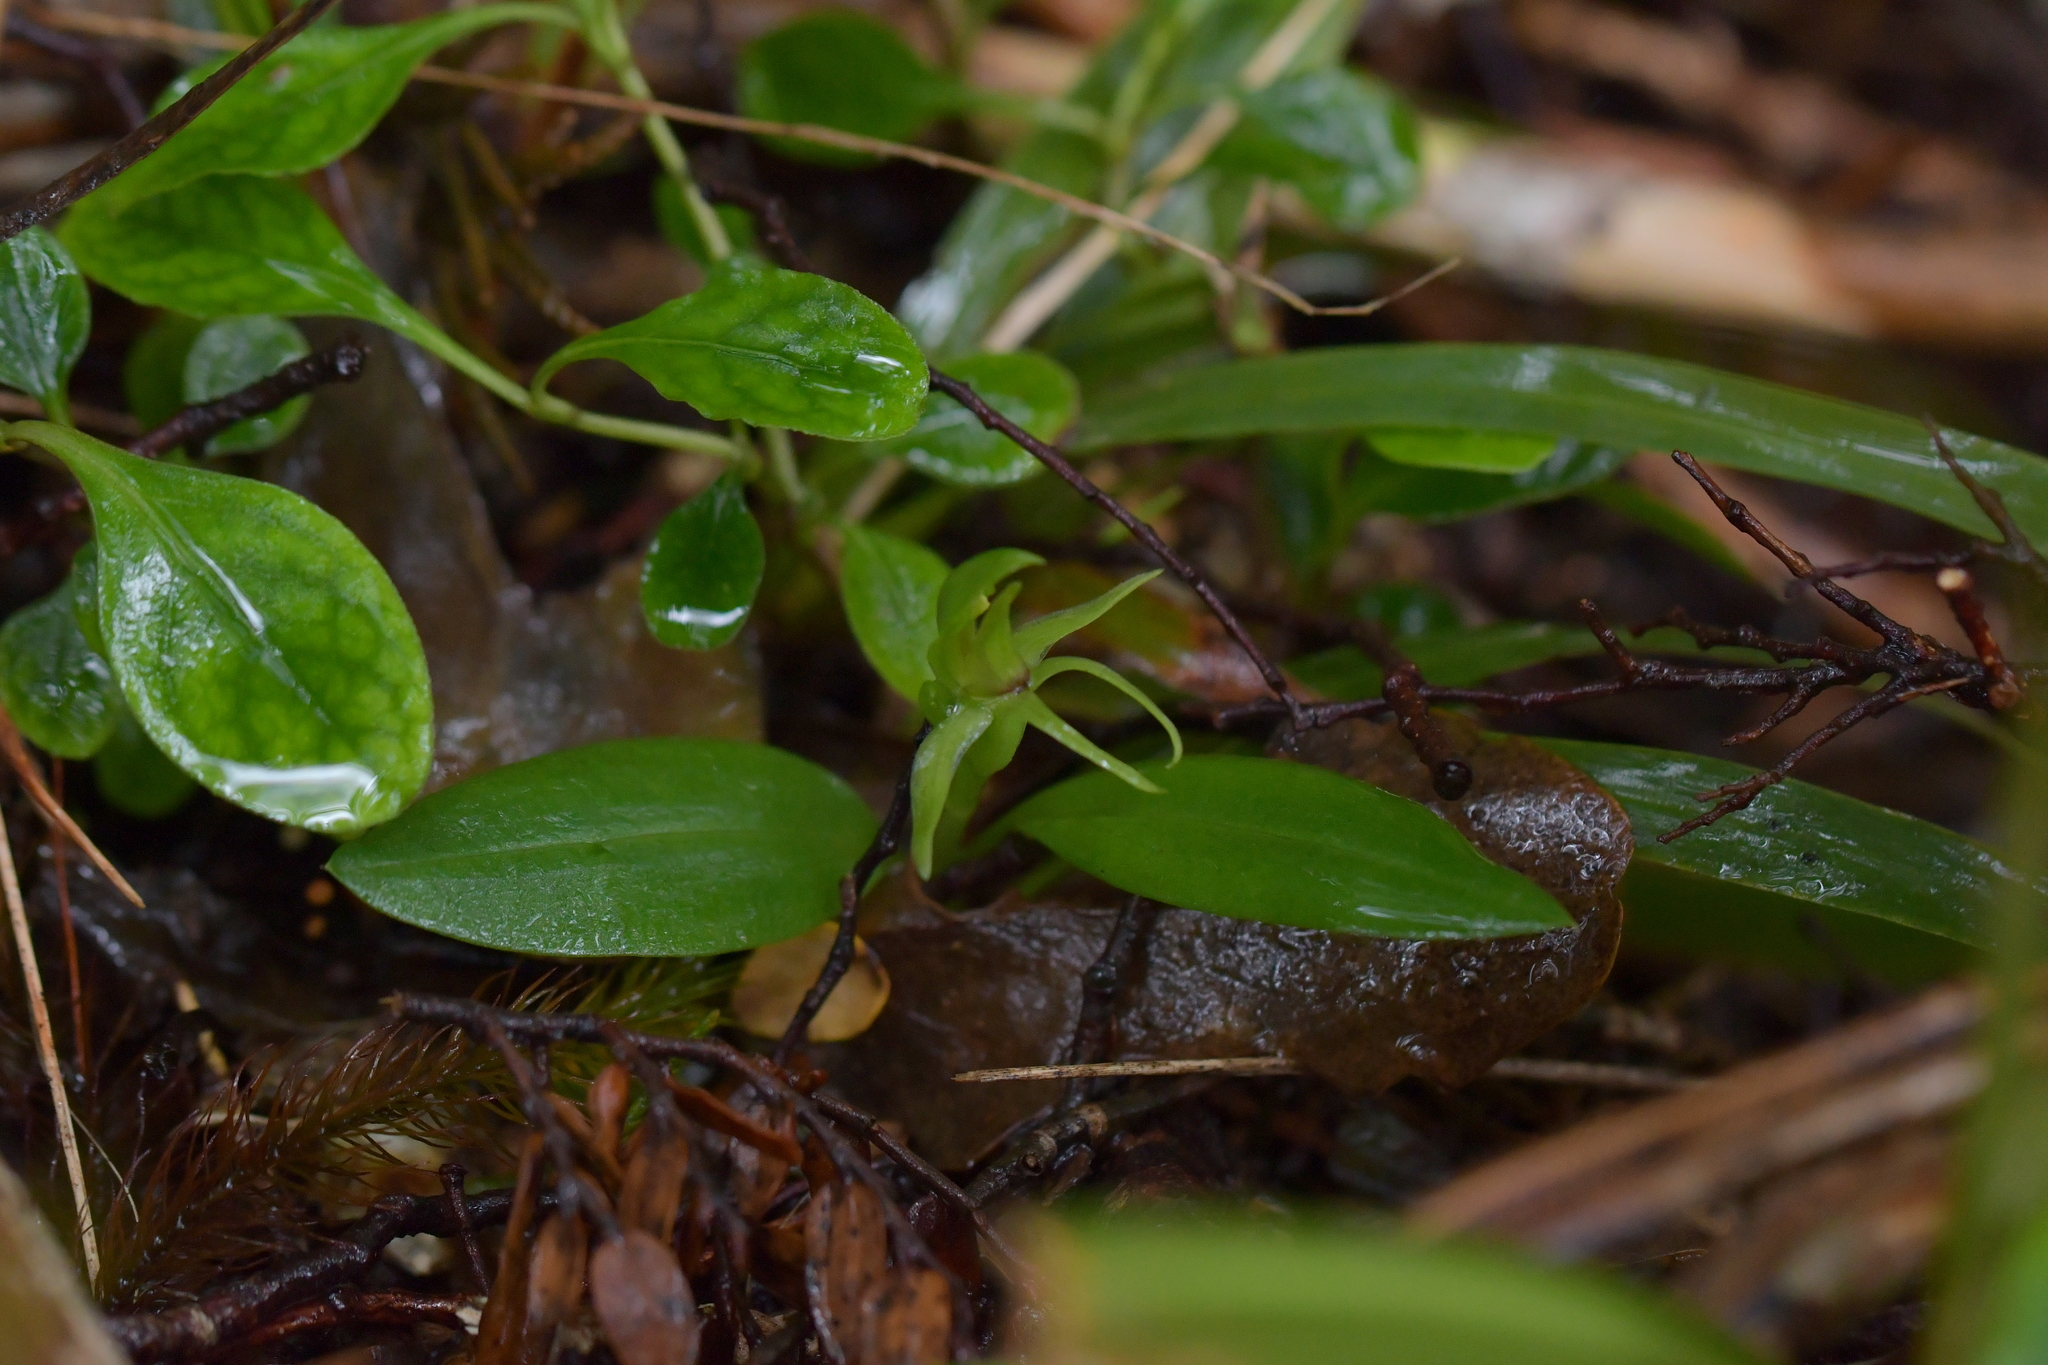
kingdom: Plantae
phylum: Tracheophyta
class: Liliopsida
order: Asparagales
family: Orchidaceae
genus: Chiloglottis
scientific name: Chiloglottis cornuta
